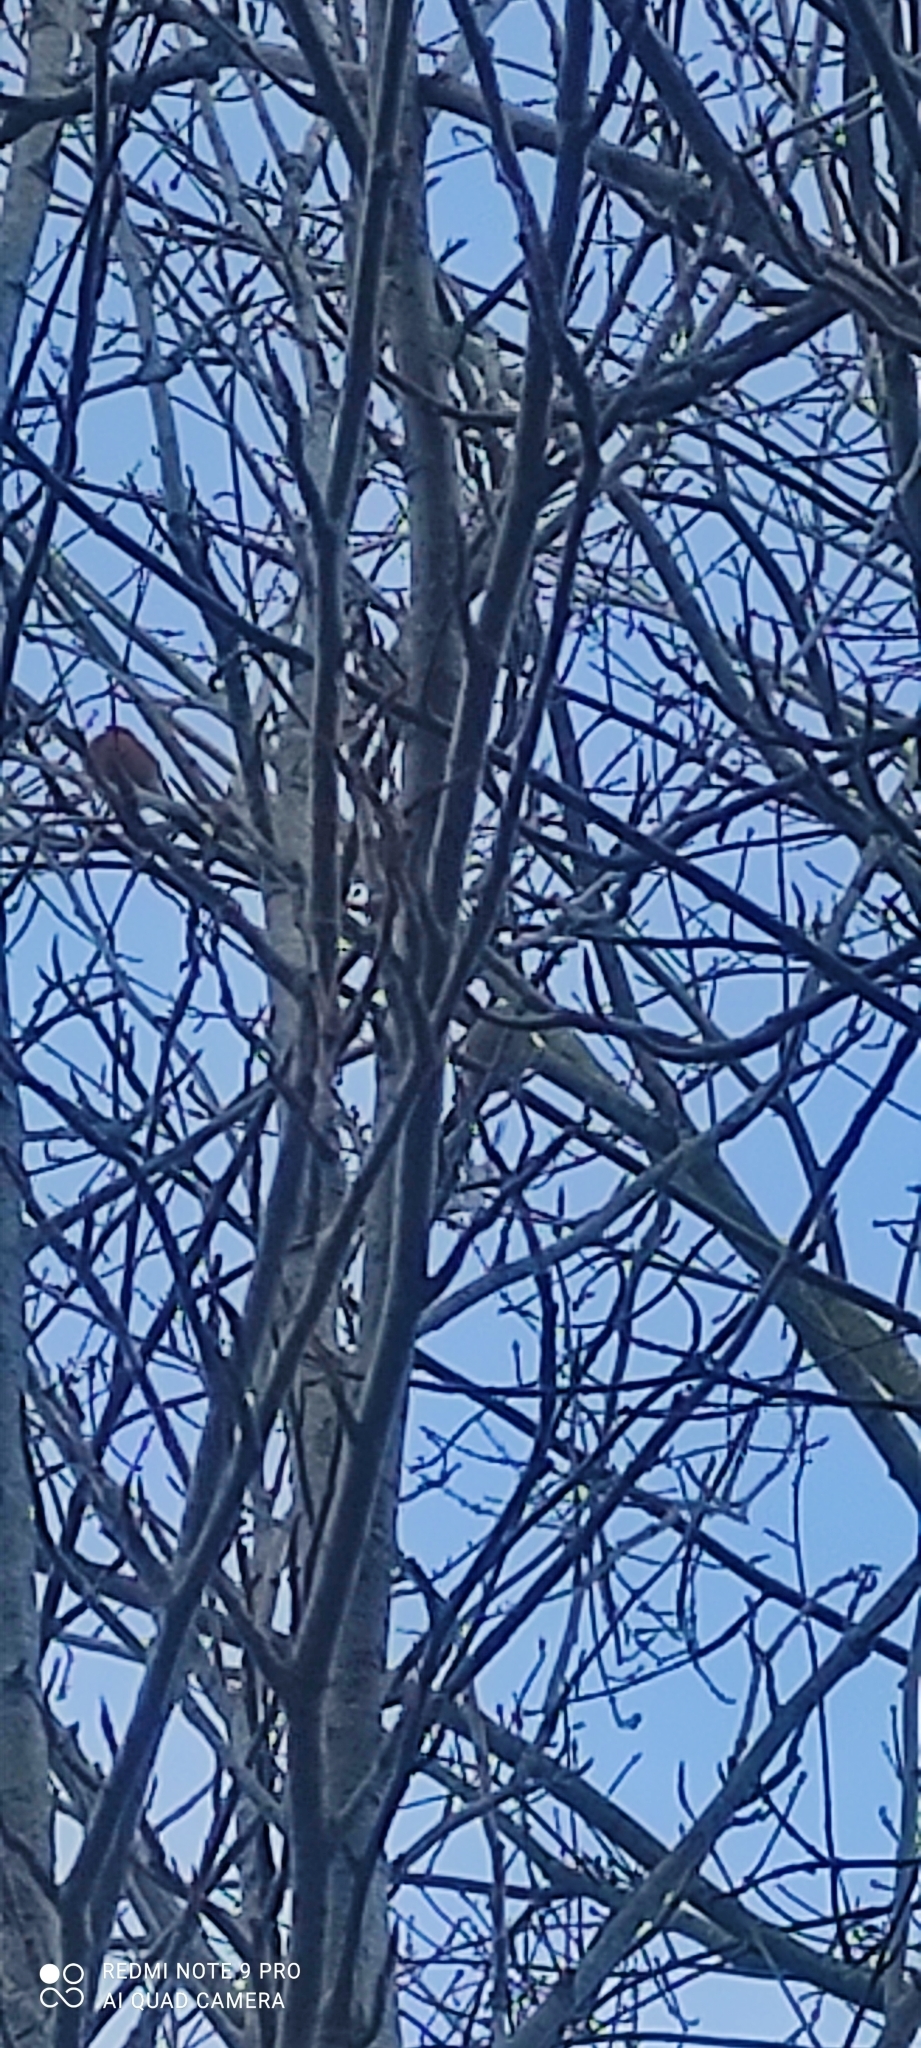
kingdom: Animalia
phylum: Chordata
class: Aves
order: Passeriformes
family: Fringillidae
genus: Pyrrhula
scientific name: Pyrrhula pyrrhula
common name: Eurasian bullfinch
